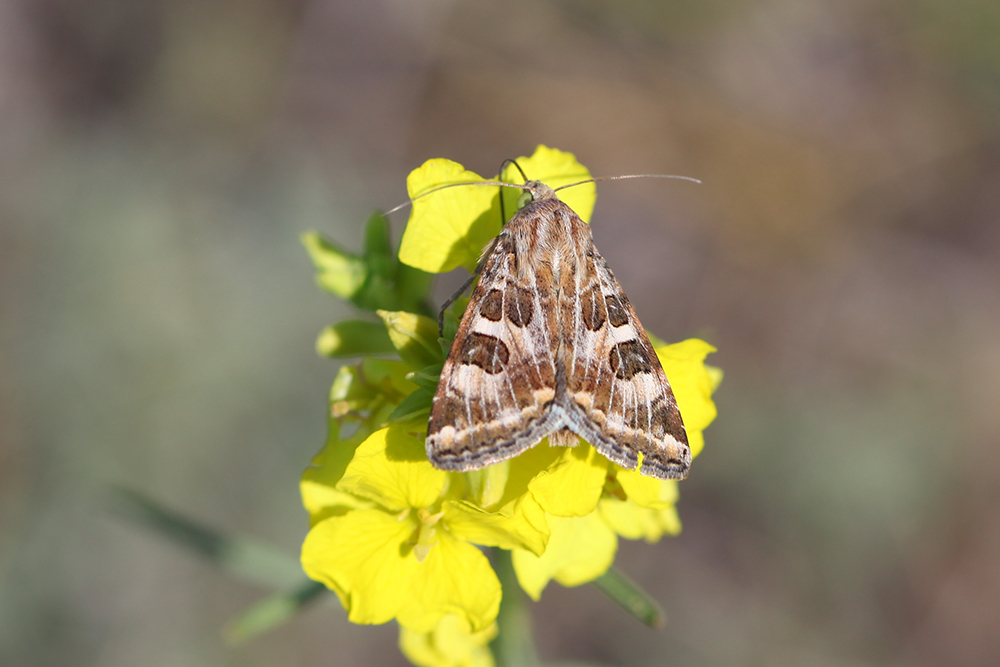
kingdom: Animalia
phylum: Arthropoda
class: Insecta
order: Lepidoptera
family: Noctuidae
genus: Protoschinia
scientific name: Protoschinia scutosa
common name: Spotted clover
